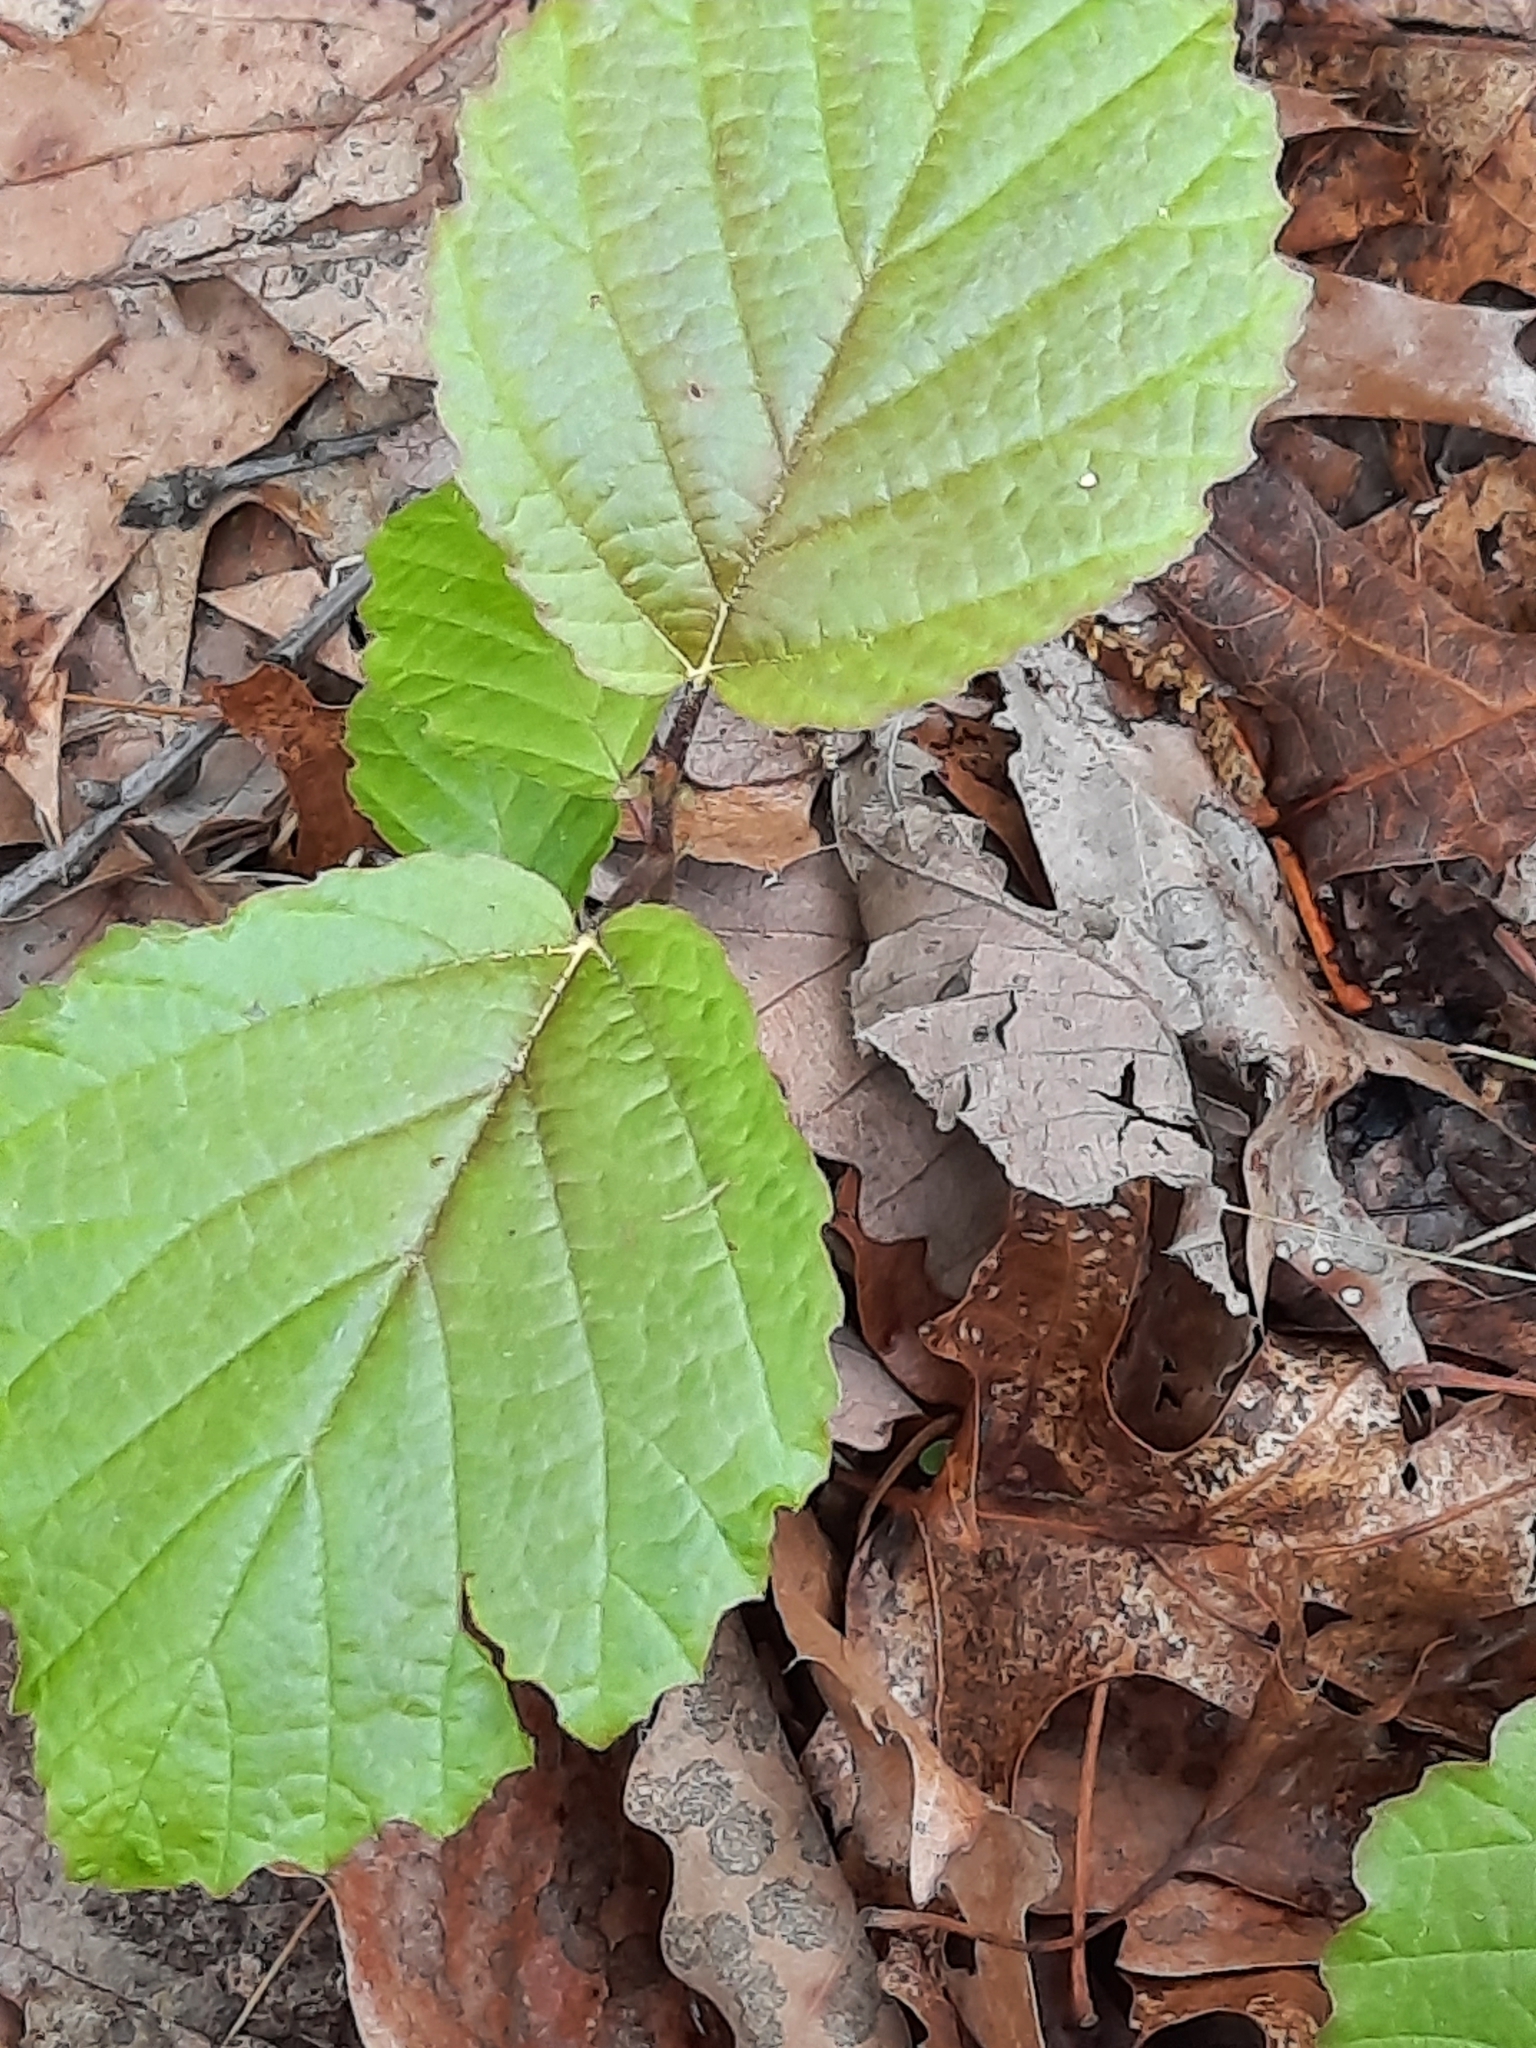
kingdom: Plantae
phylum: Tracheophyta
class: Magnoliopsida
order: Saxifragales
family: Hamamelidaceae
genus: Hamamelis
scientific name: Hamamelis virginiana
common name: Witch-hazel
